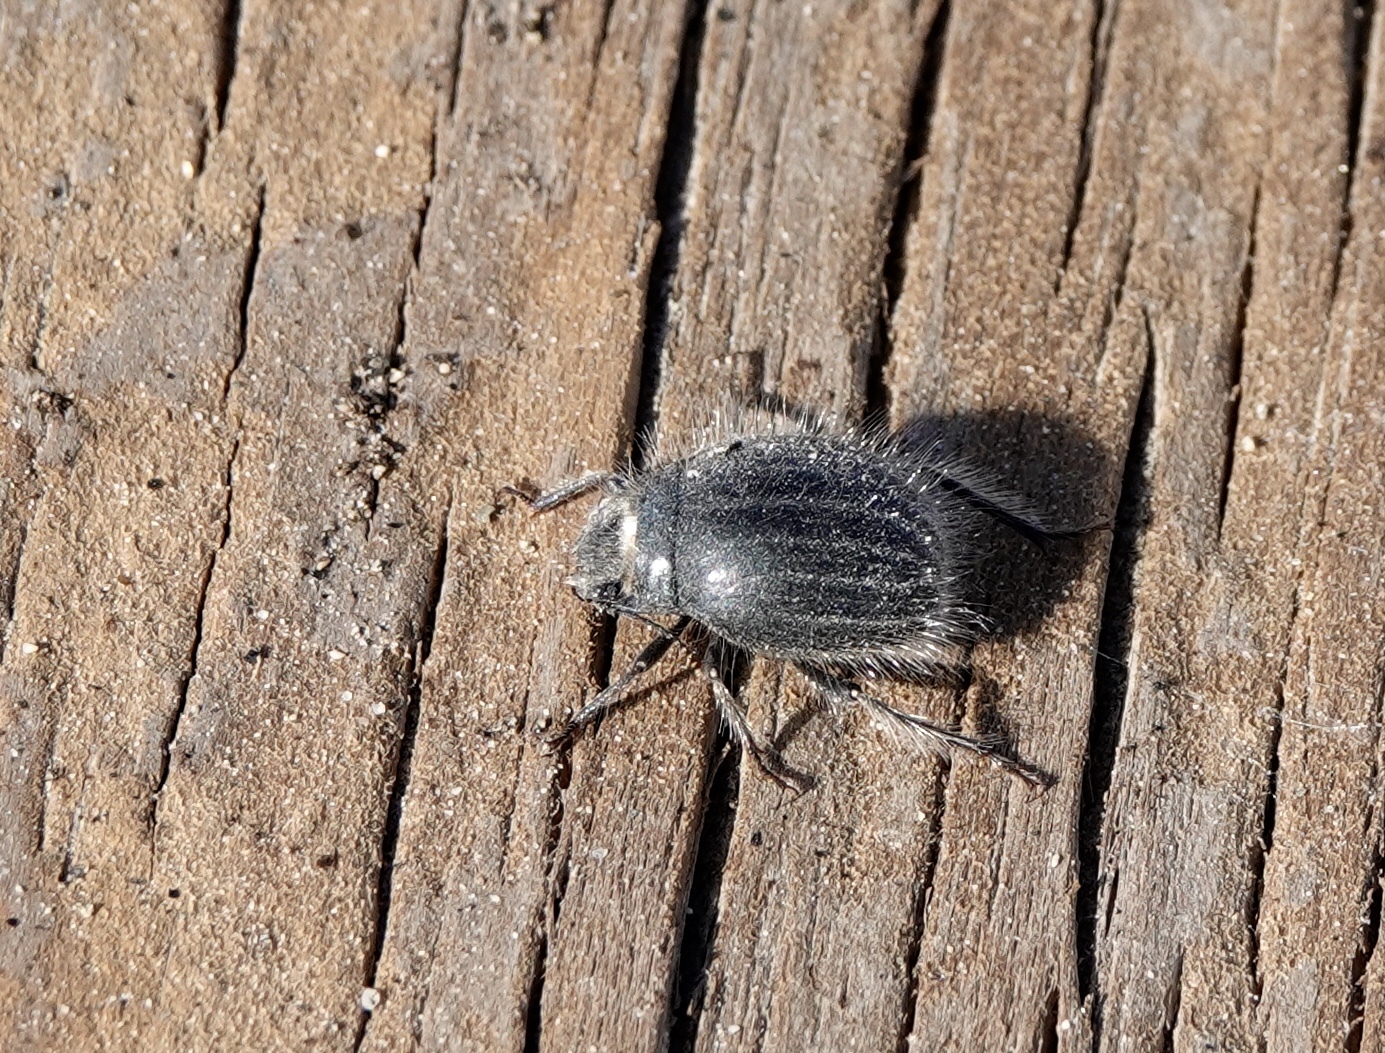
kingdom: Animalia
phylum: Arthropoda
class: Insecta
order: Coleoptera
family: Tenebrionidae
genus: Edrotes
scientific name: Edrotes ventricosus
